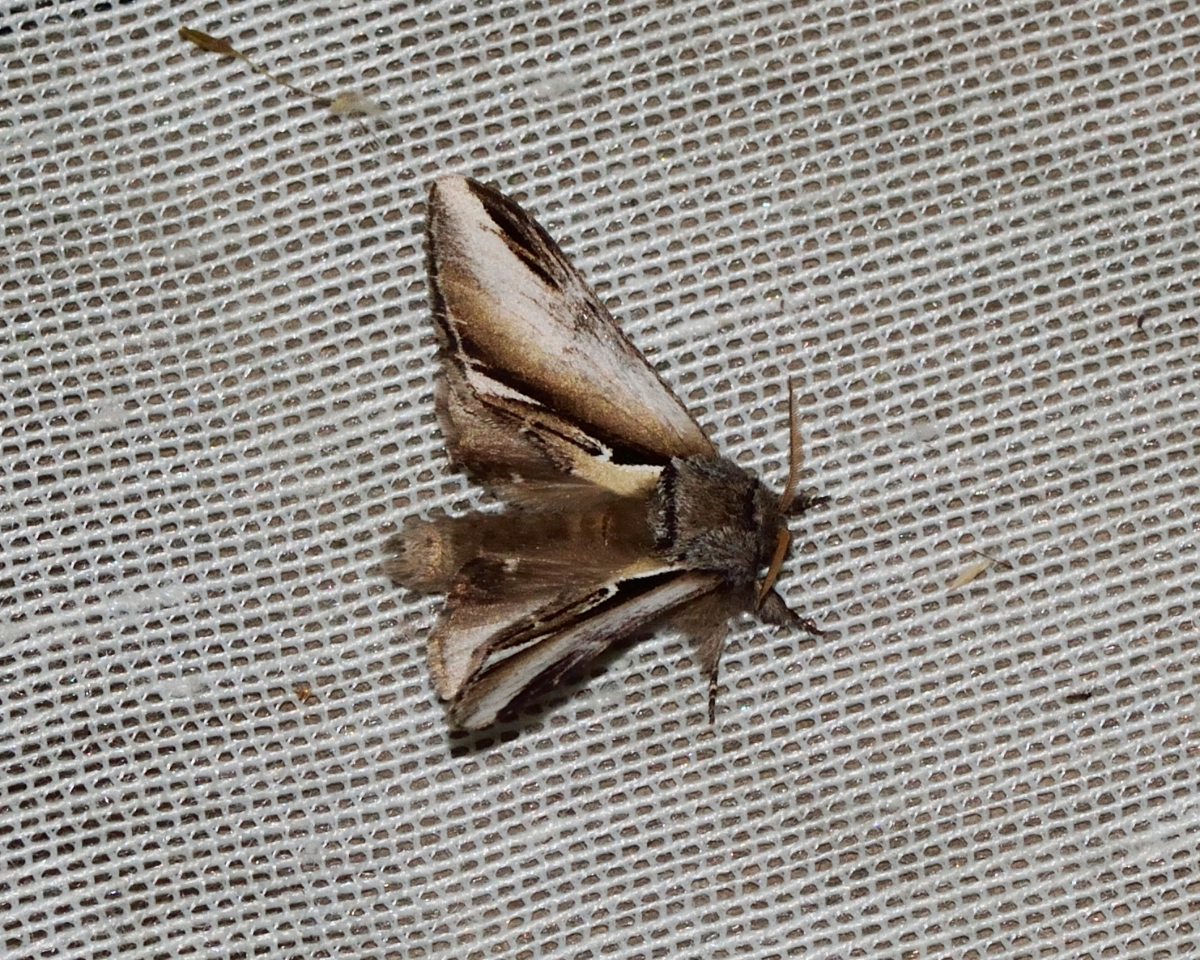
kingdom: Animalia
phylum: Arthropoda
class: Insecta
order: Lepidoptera
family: Notodontidae
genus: Pheosia
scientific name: Pheosia gnoma
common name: Lesser swallow prominent
